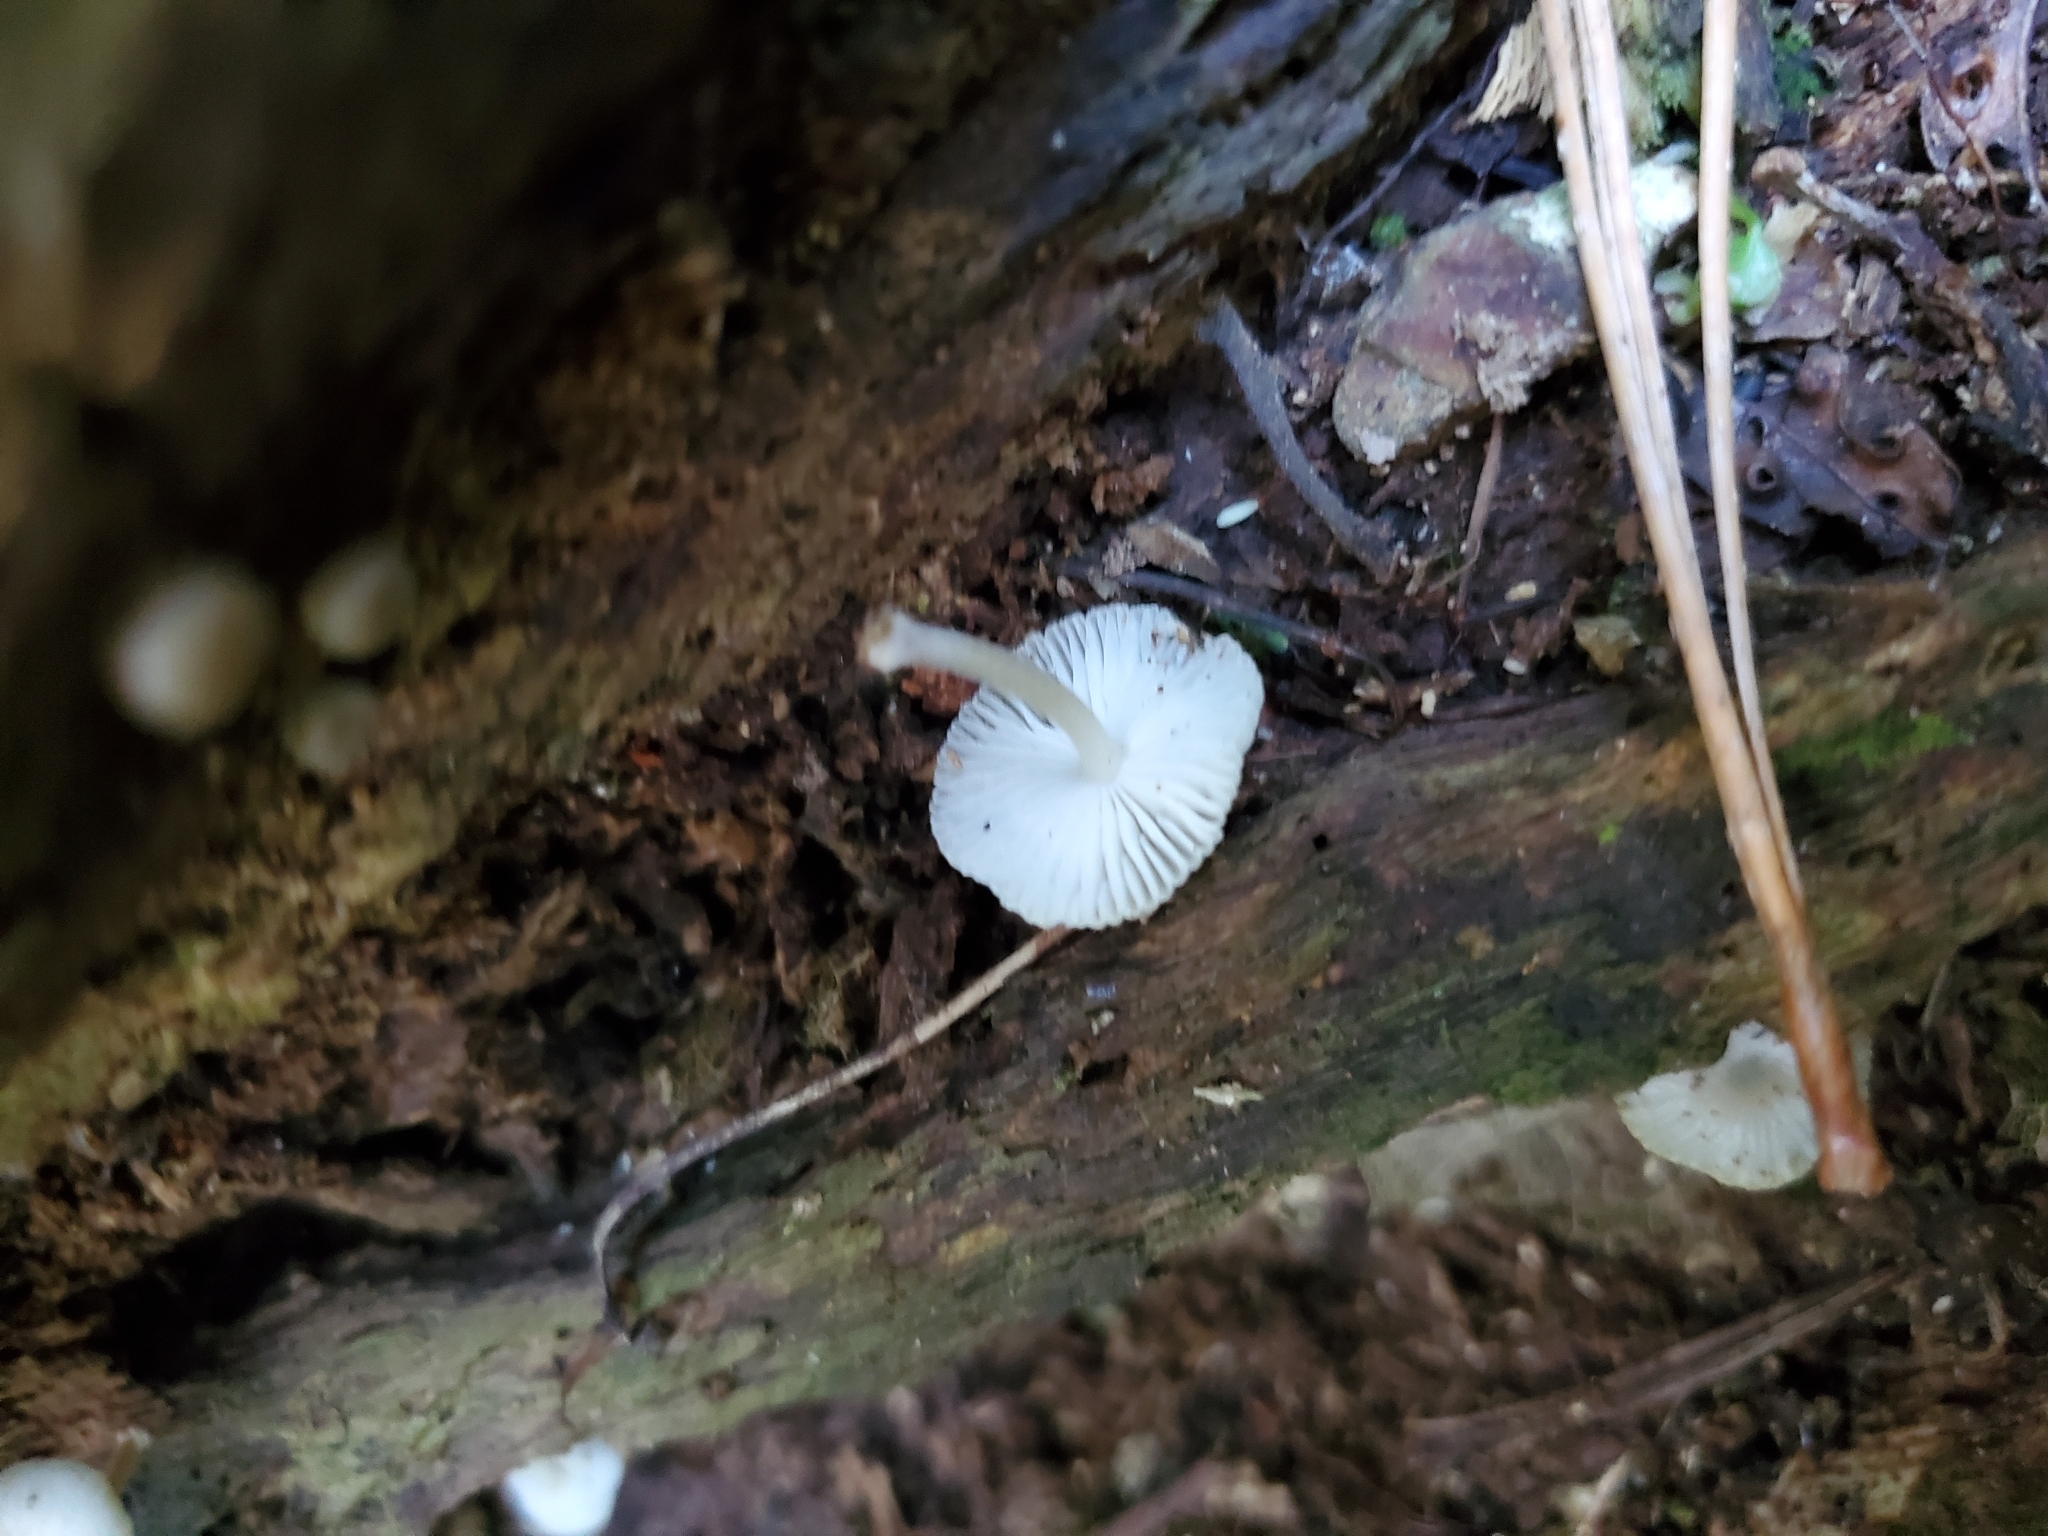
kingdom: Fungi
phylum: Basidiomycota
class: Agaricomycetes
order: Agaricales
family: Mycenaceae
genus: Mycena
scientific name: Mycena interrupta
